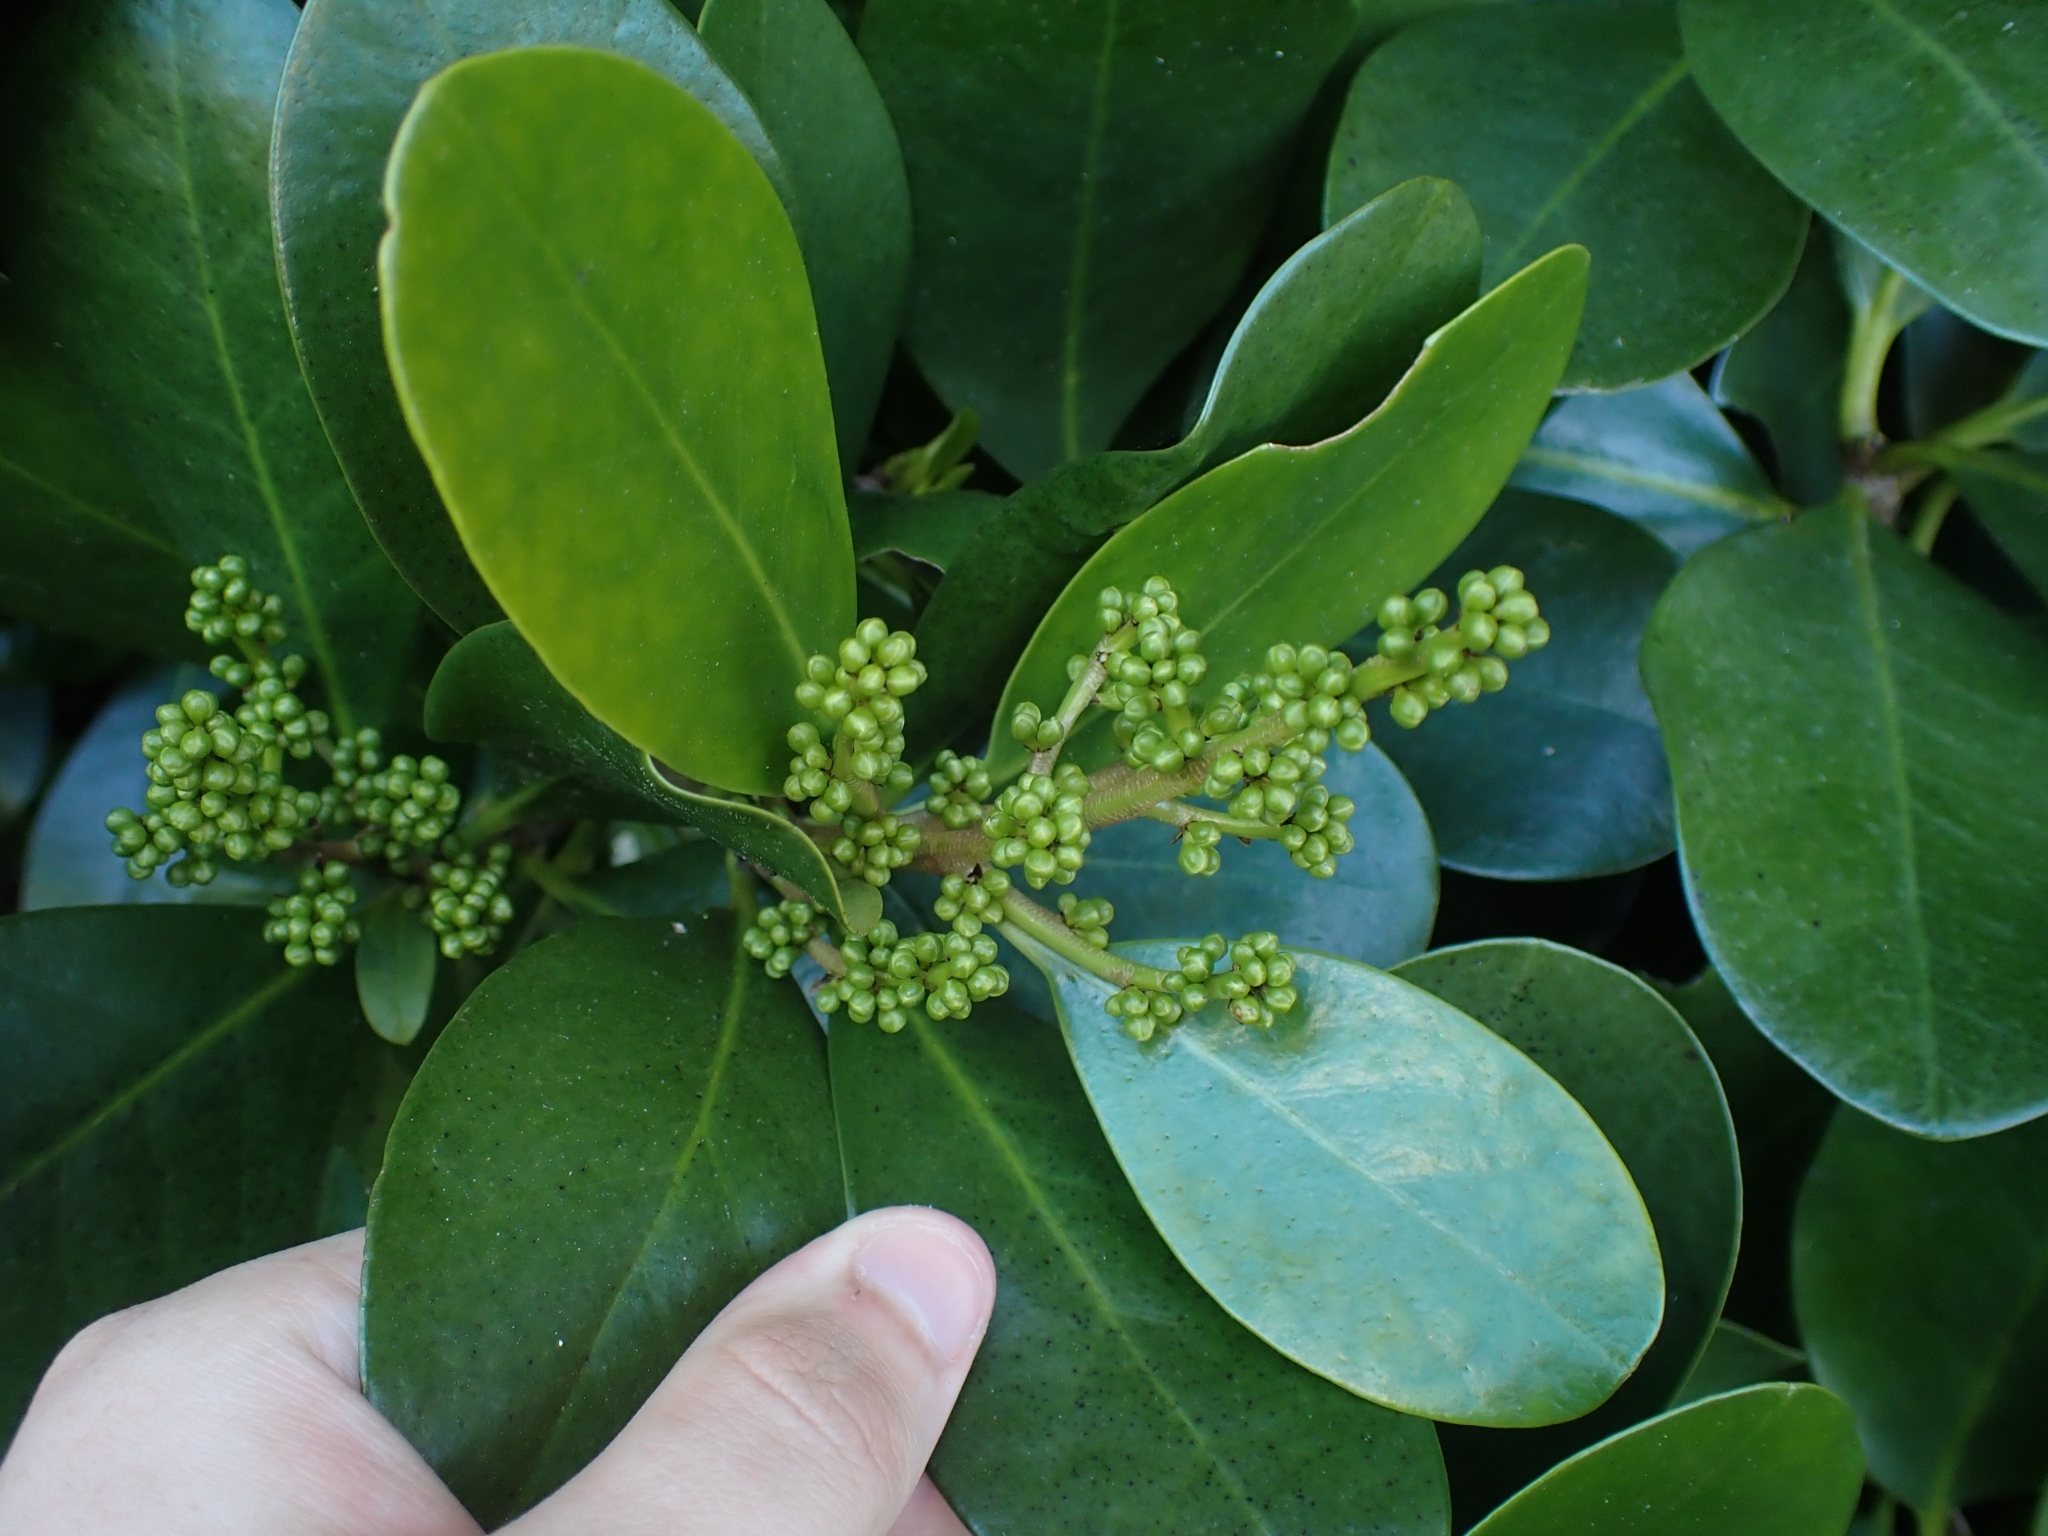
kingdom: Plantae
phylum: Tracheophyta
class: Magnoliopsida
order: Cucurbitales
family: Corynocarpaceae
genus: Corynocarpus
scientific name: Corynocarpus laevigatus
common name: New zealand laurel
